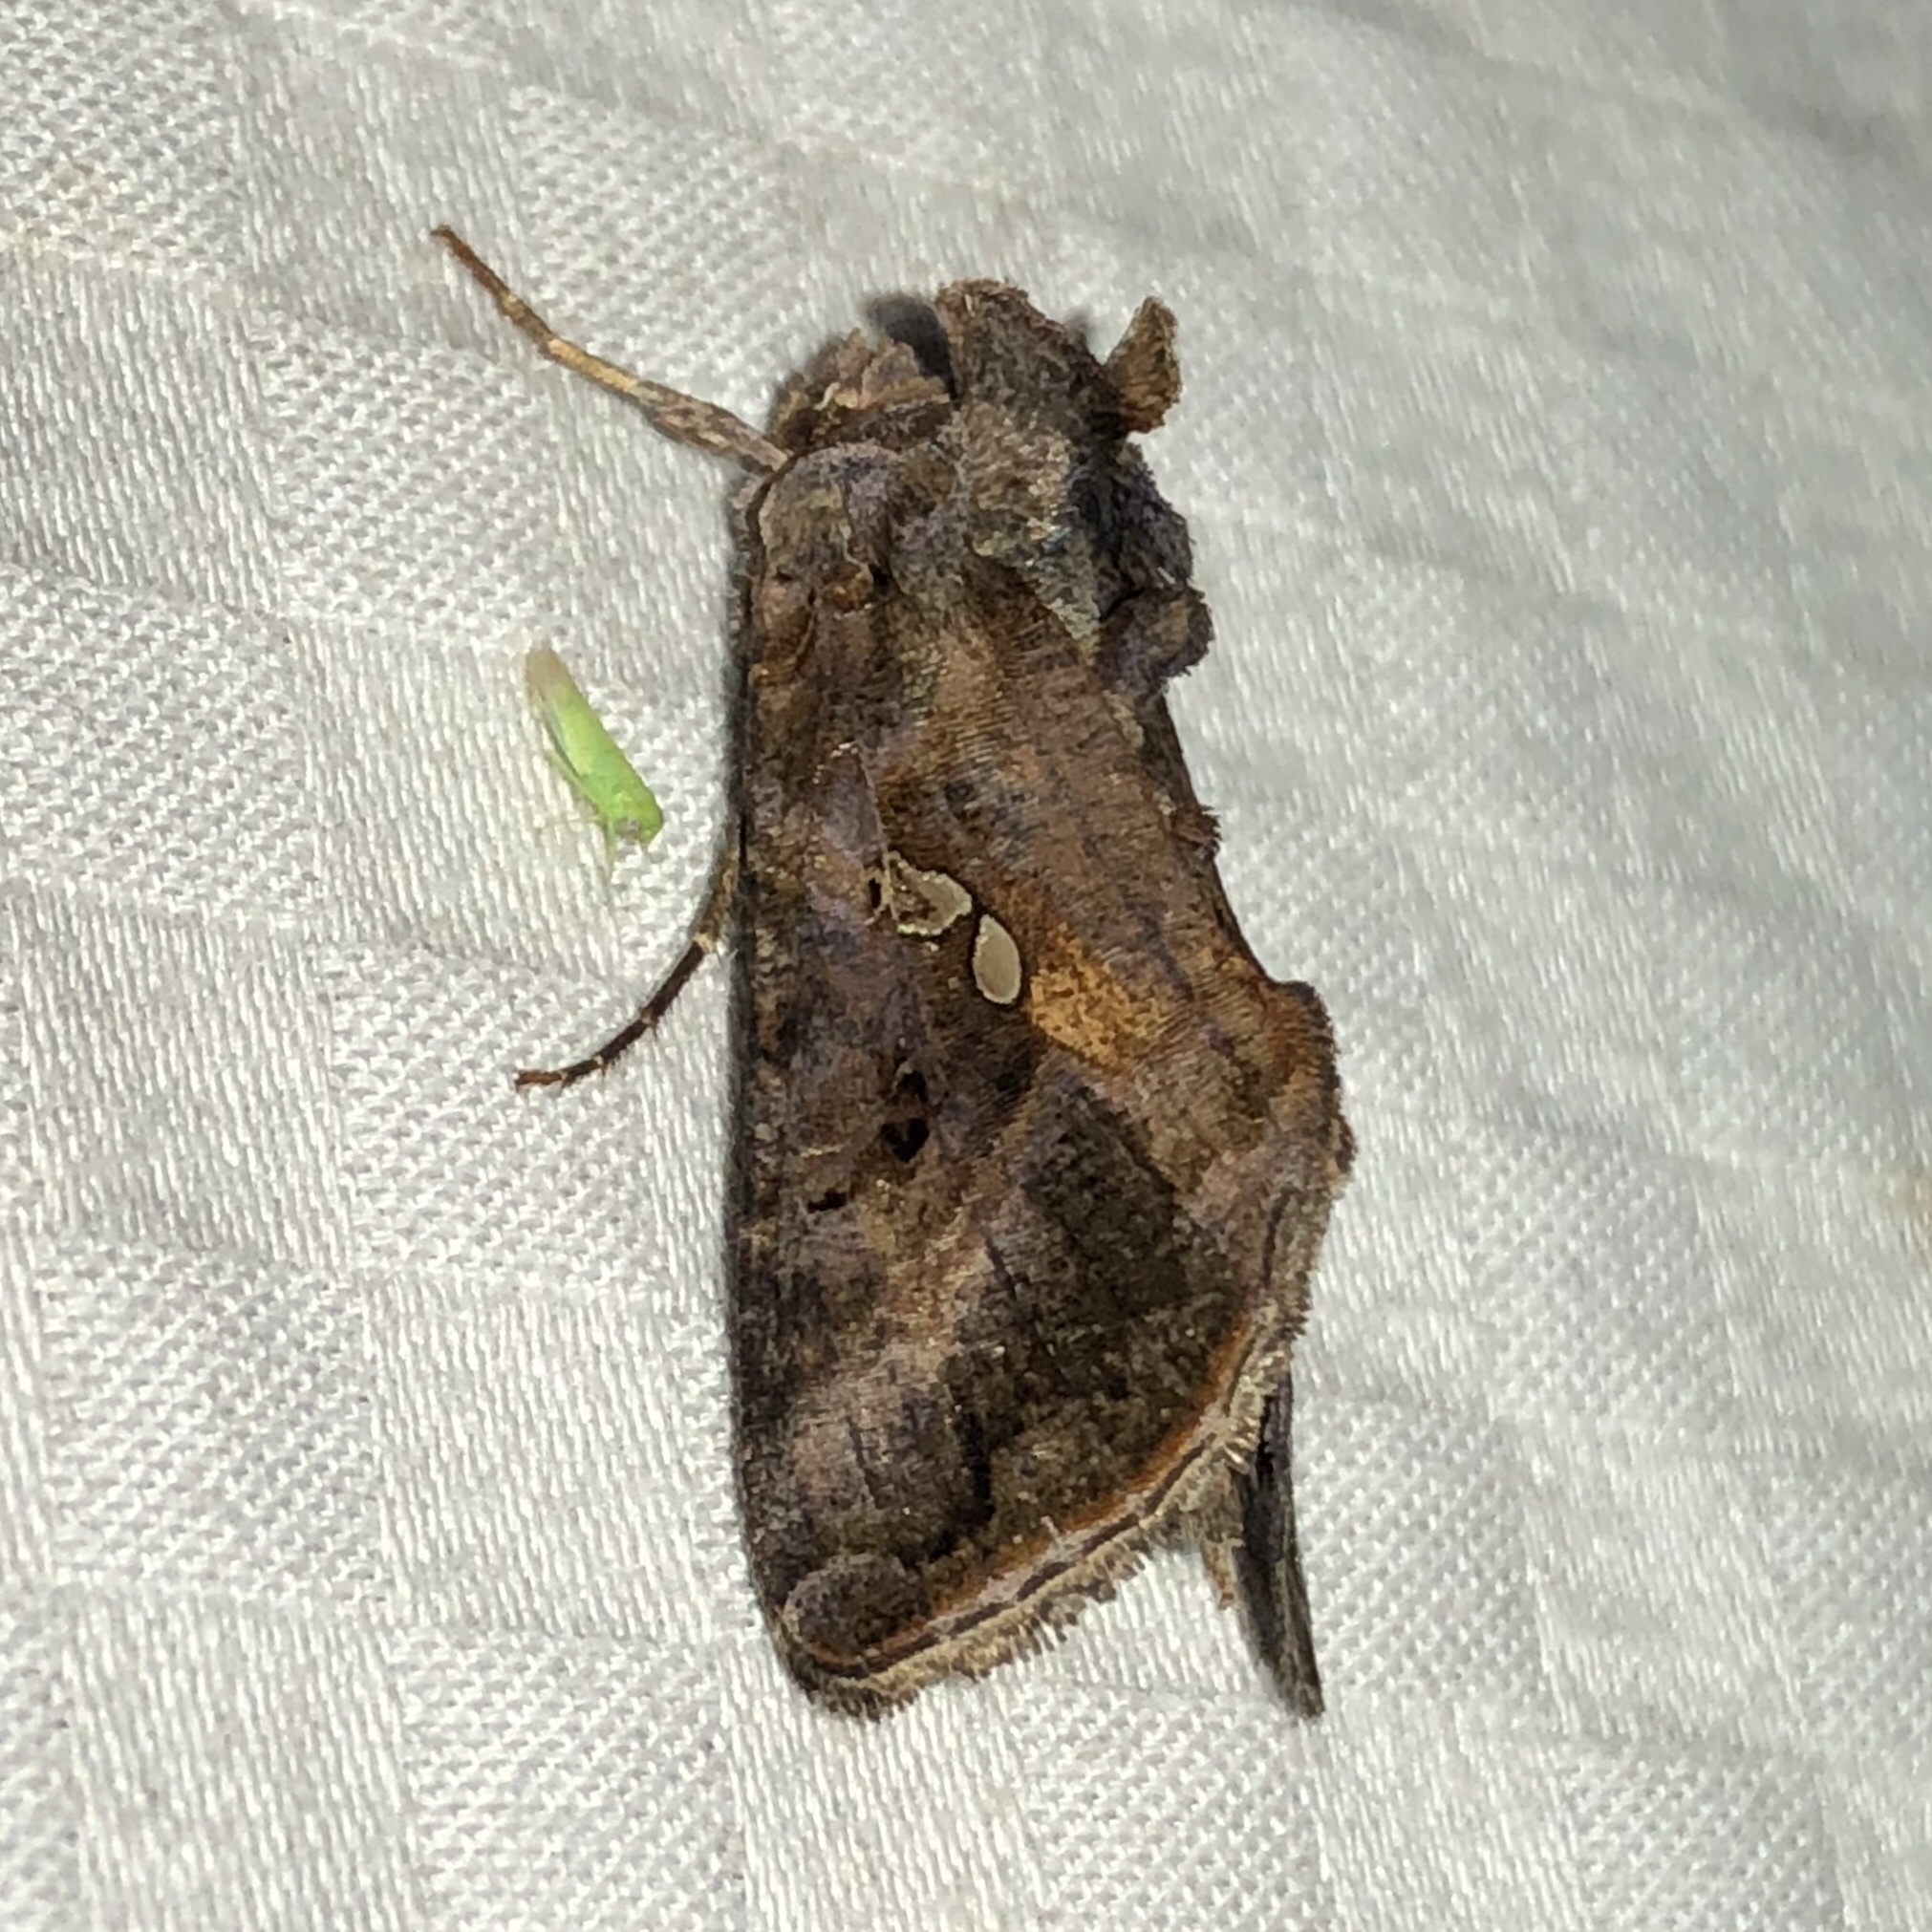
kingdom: Animalia
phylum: Arthropoda
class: Insecta
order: Lepidoptera
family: Noctuidae
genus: Autographa
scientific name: Autographa precationis
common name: Common looper moth
